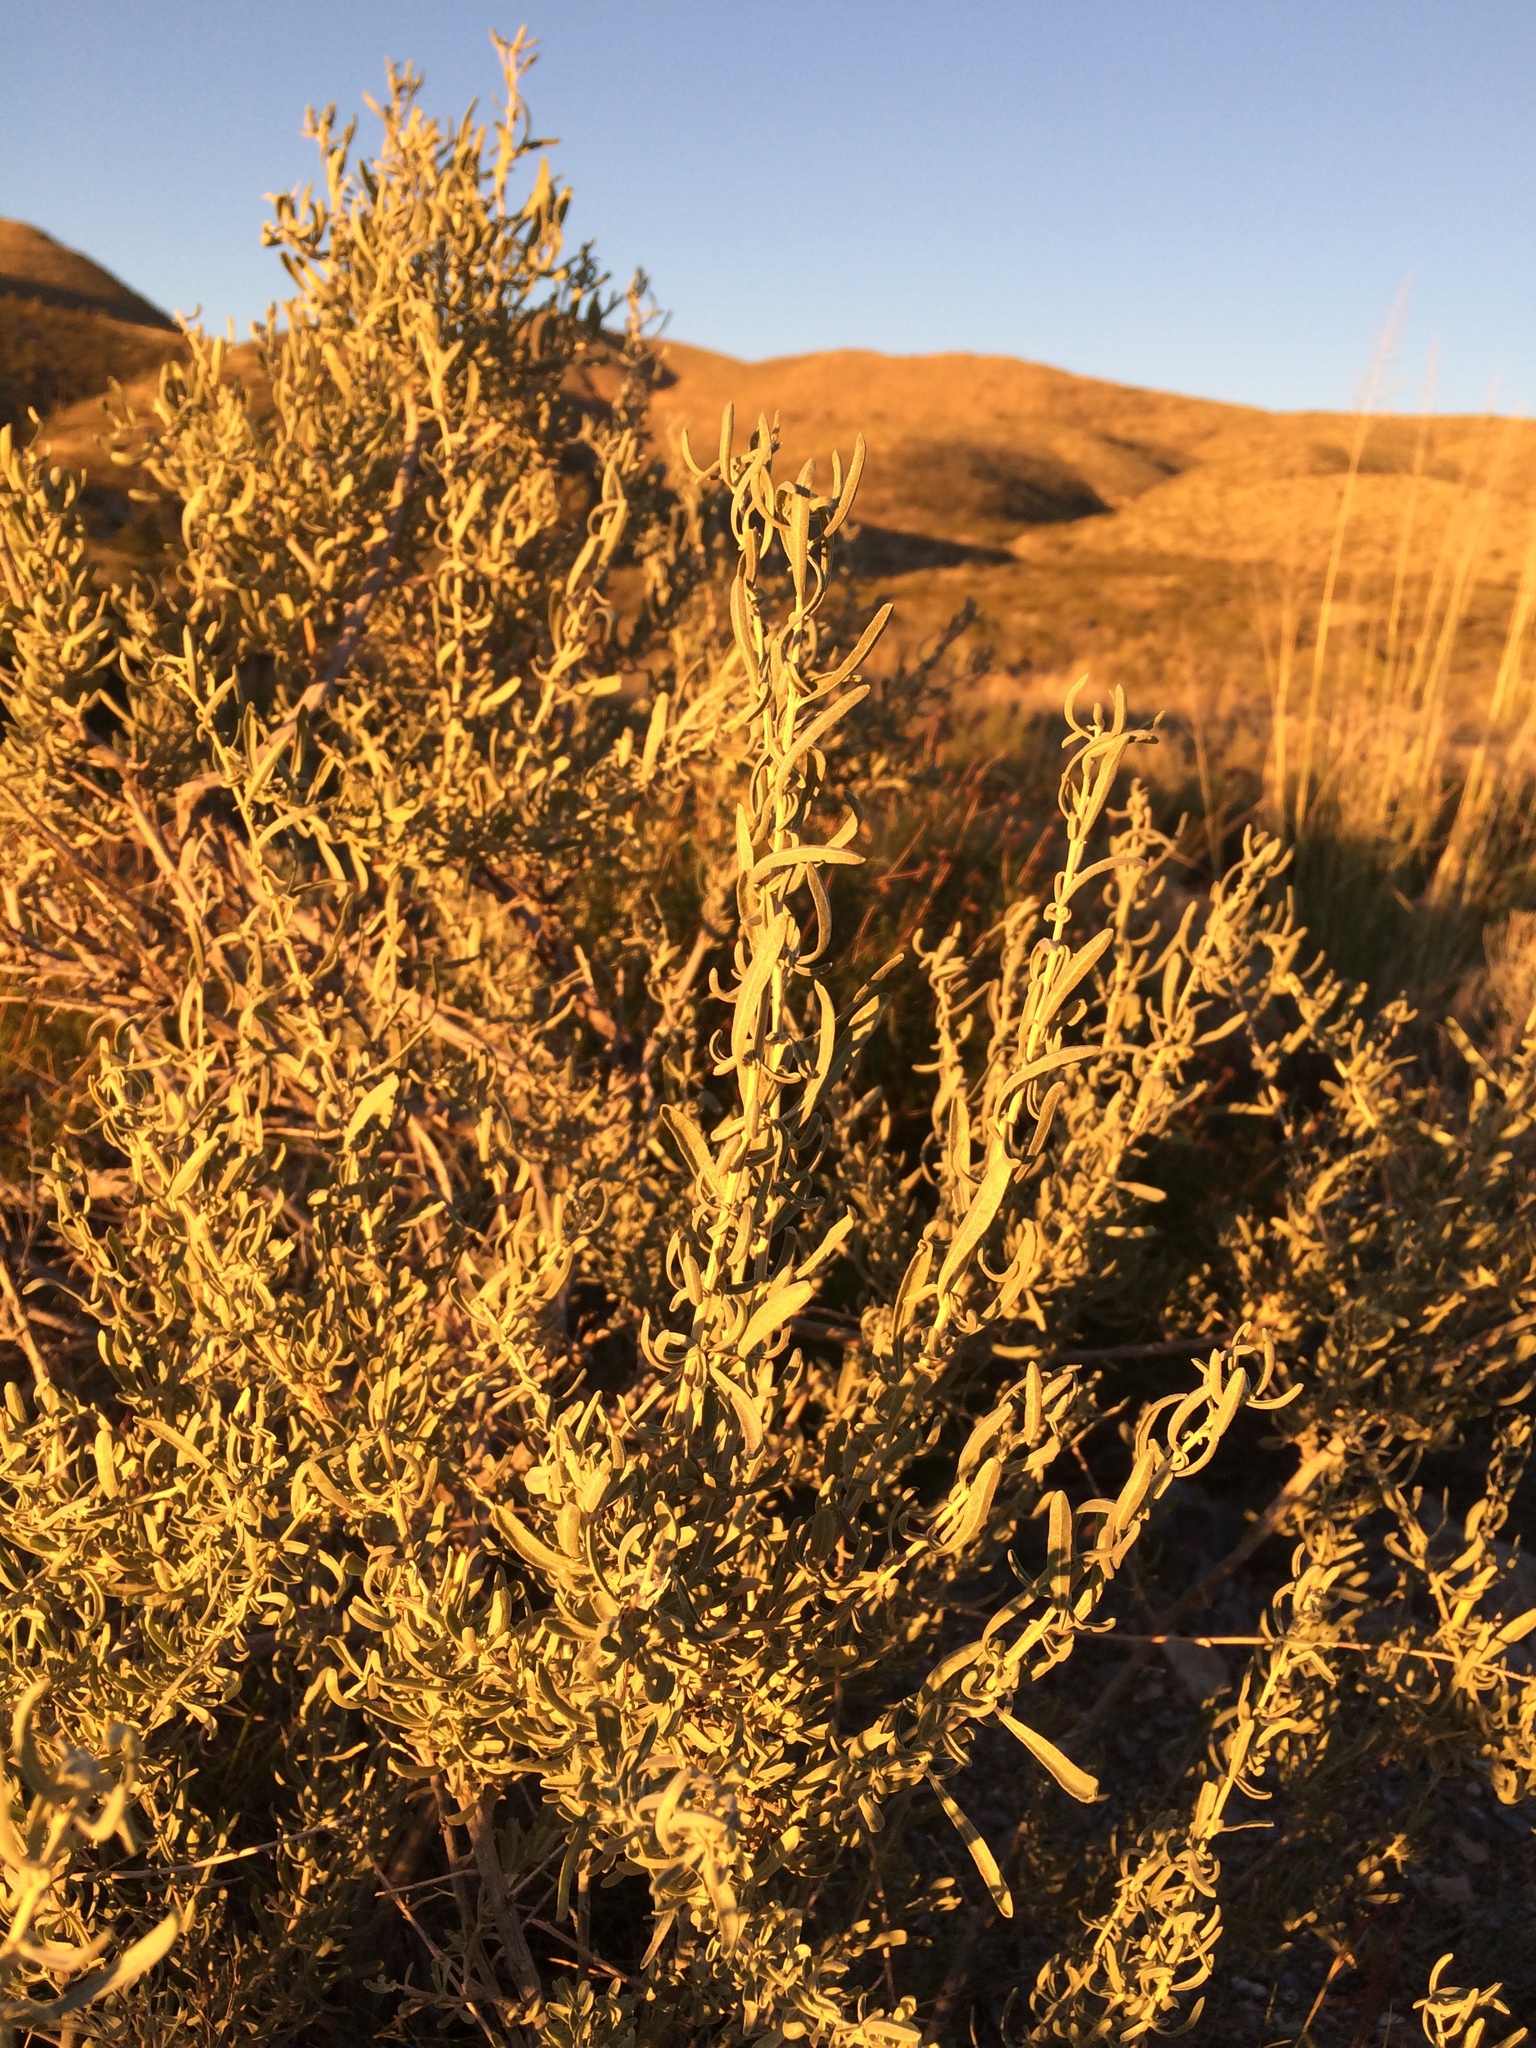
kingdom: Plantae
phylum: Tracheophyta
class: Magnoliopsida
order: Caryophyllales
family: Amaranthaceae
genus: Atriplex
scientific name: Atriplex canescens
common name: Four-wing saltbush
